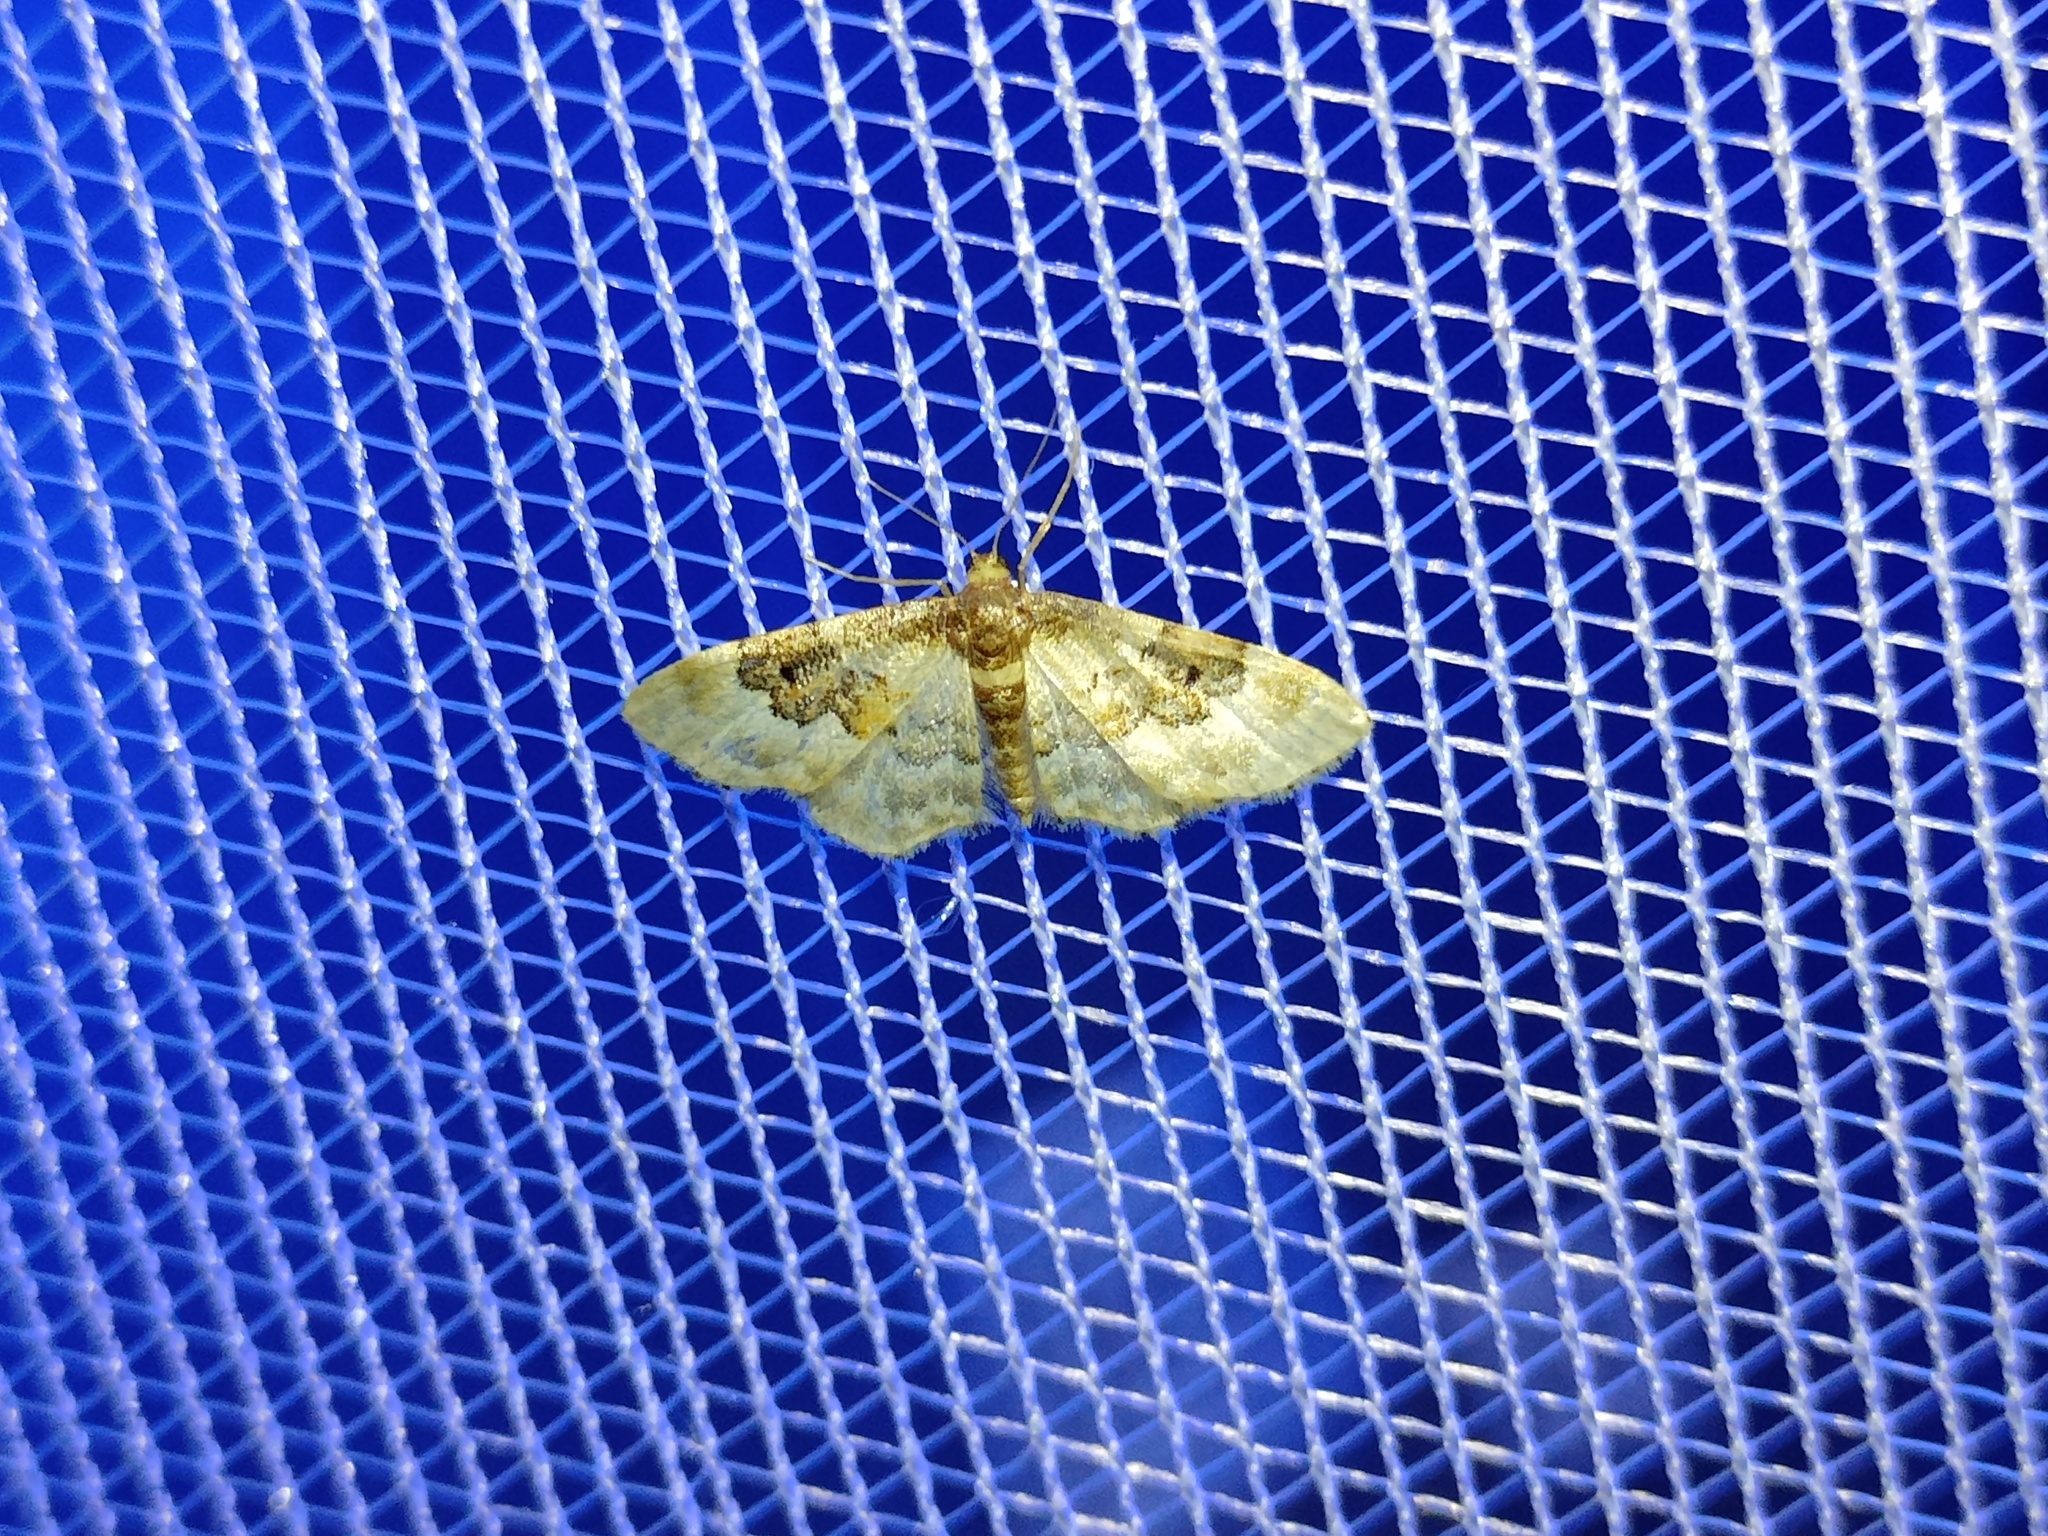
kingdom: Animalia
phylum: Arthropoda
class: Insecta
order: Lepidoptera
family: Geometridae
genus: Idaea
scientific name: Idaea rusticata
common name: Least carpet
